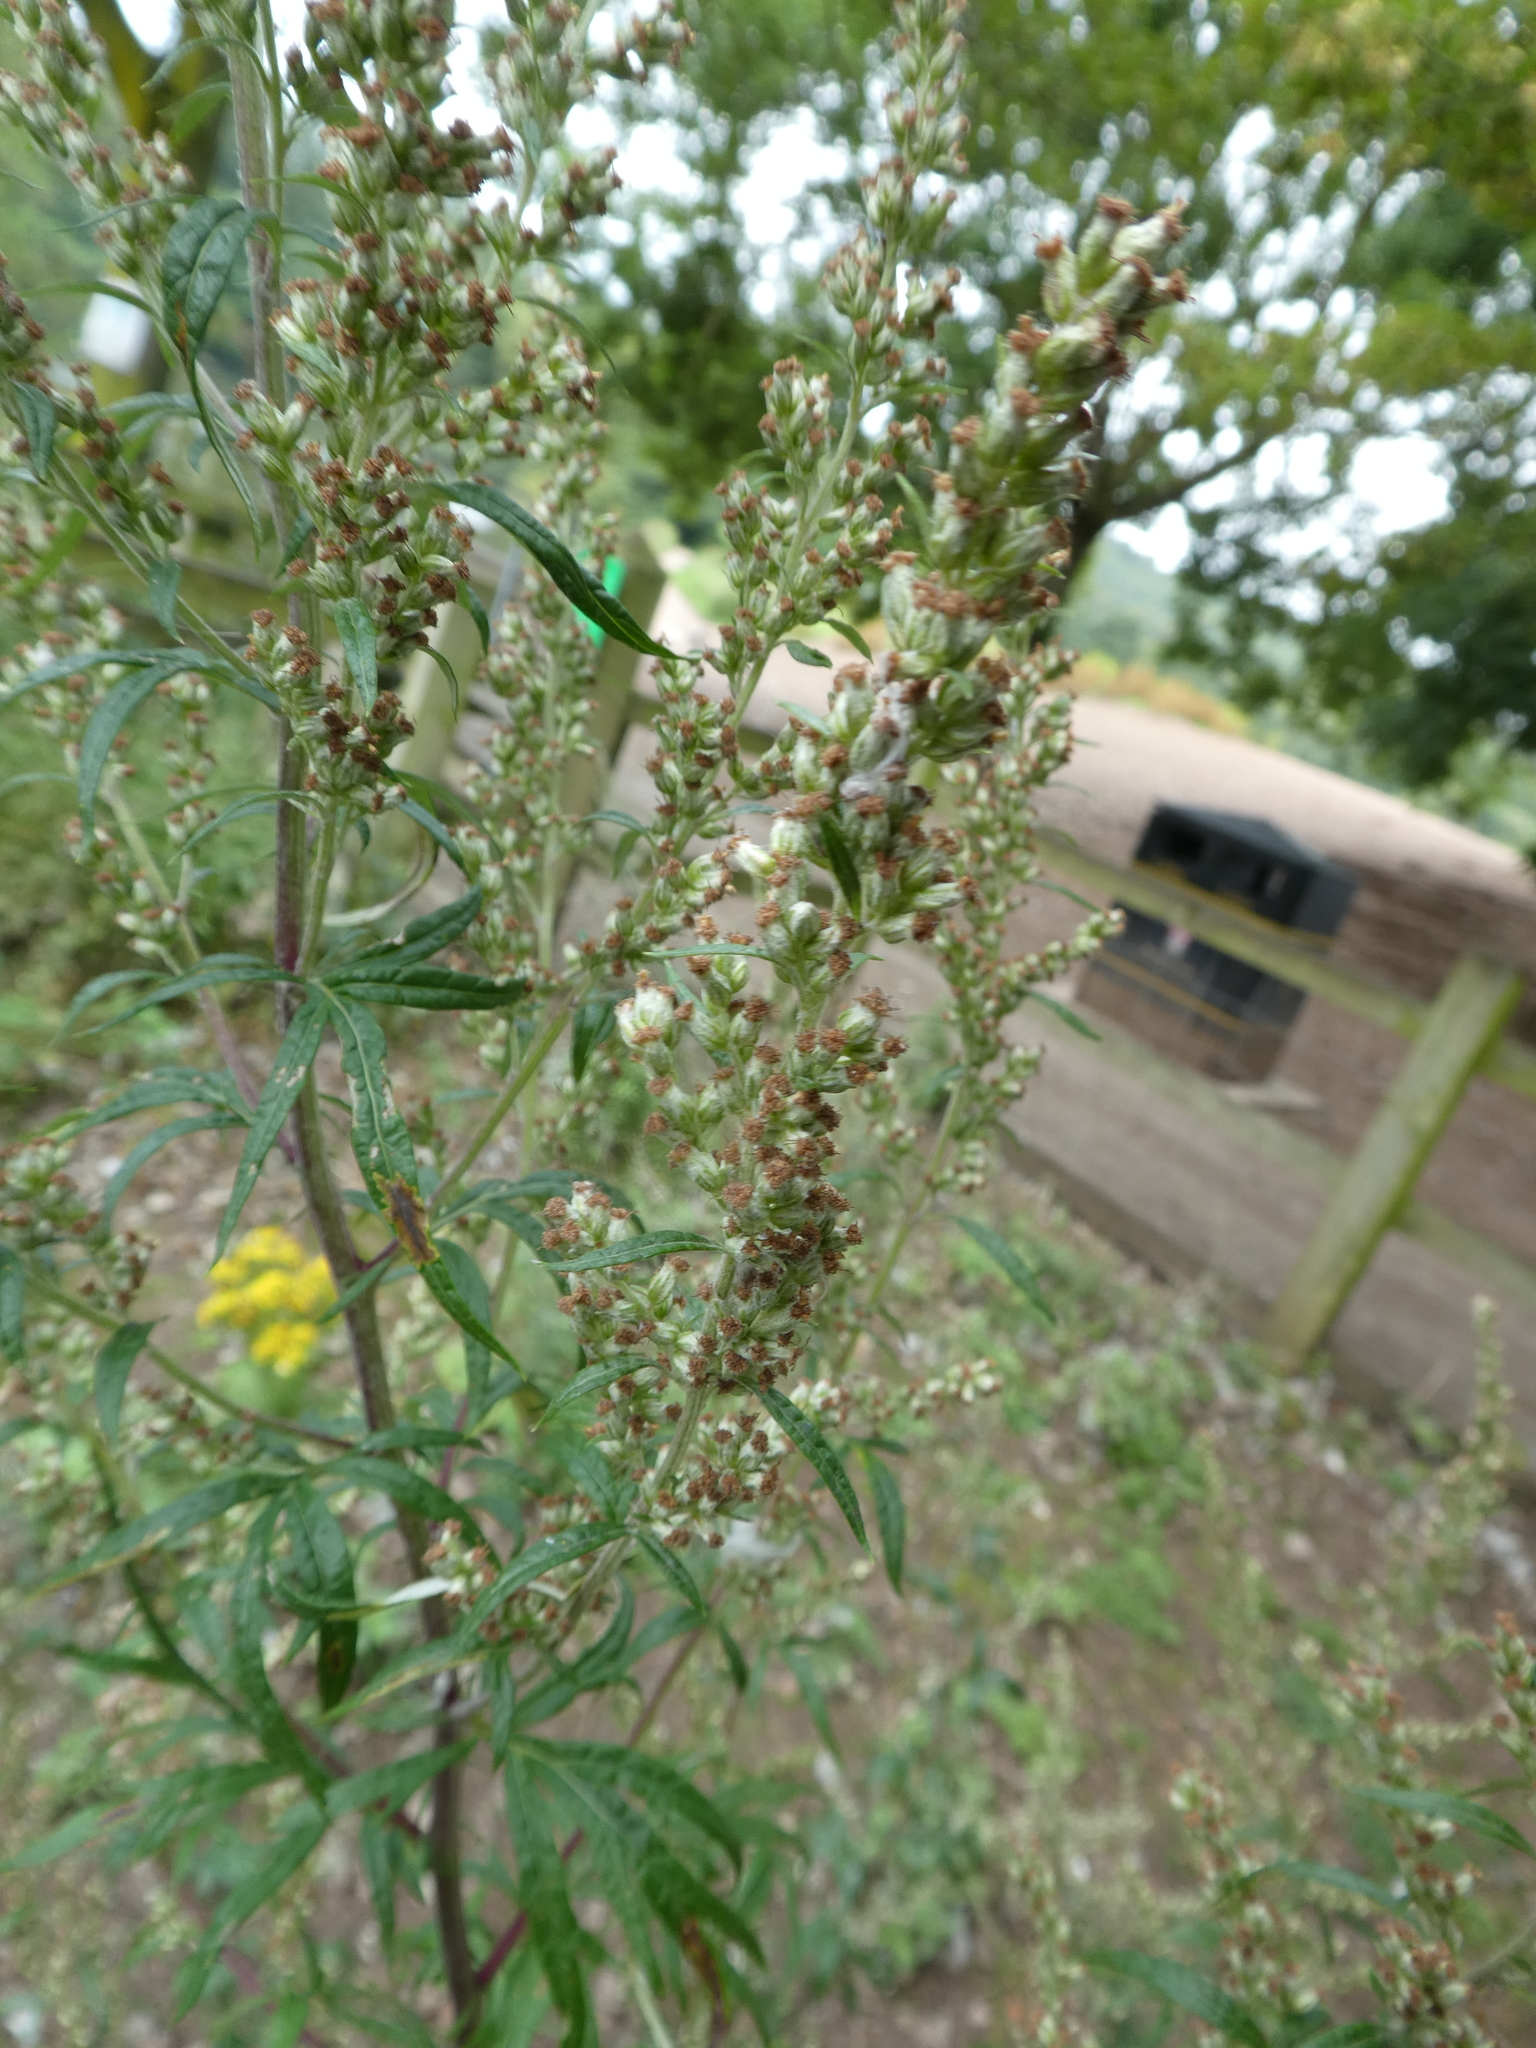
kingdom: Plantae
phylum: Tracheophyta
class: Magnoliopsida
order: Asterales
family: Asteraceae
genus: Artemisia
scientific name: Artemisia vulgaris
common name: Mugwort
